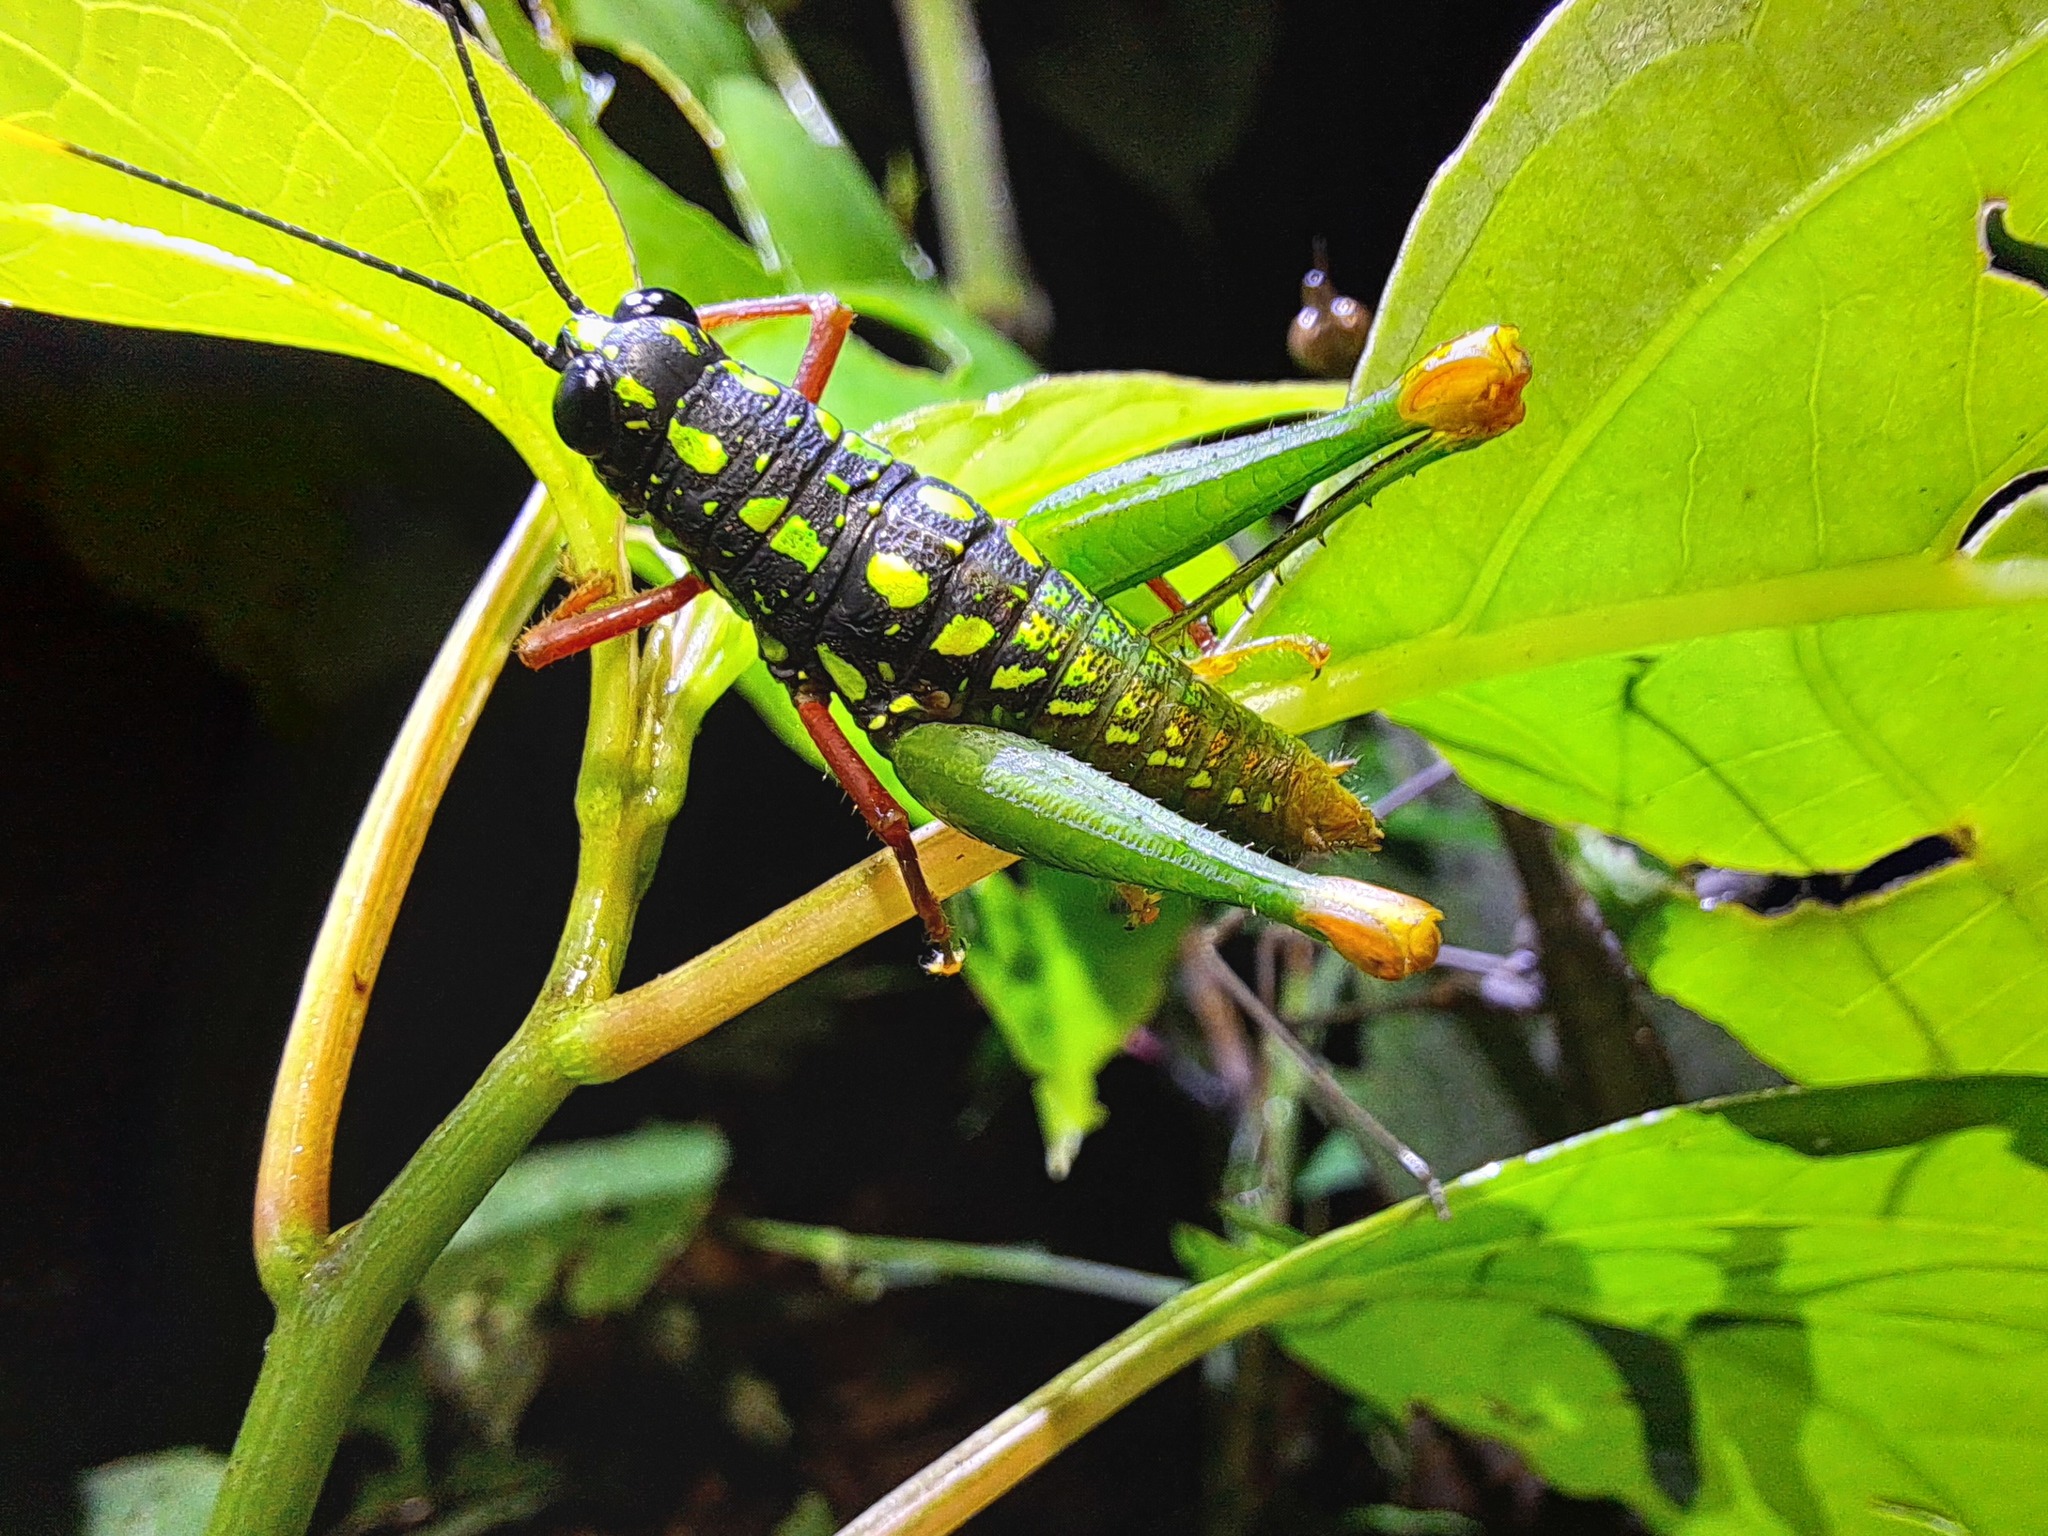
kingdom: Animalia
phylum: Arthropoda
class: Insecta
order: Orthoptera
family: Acrididae
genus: Galidacris
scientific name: Galidacris agilis
